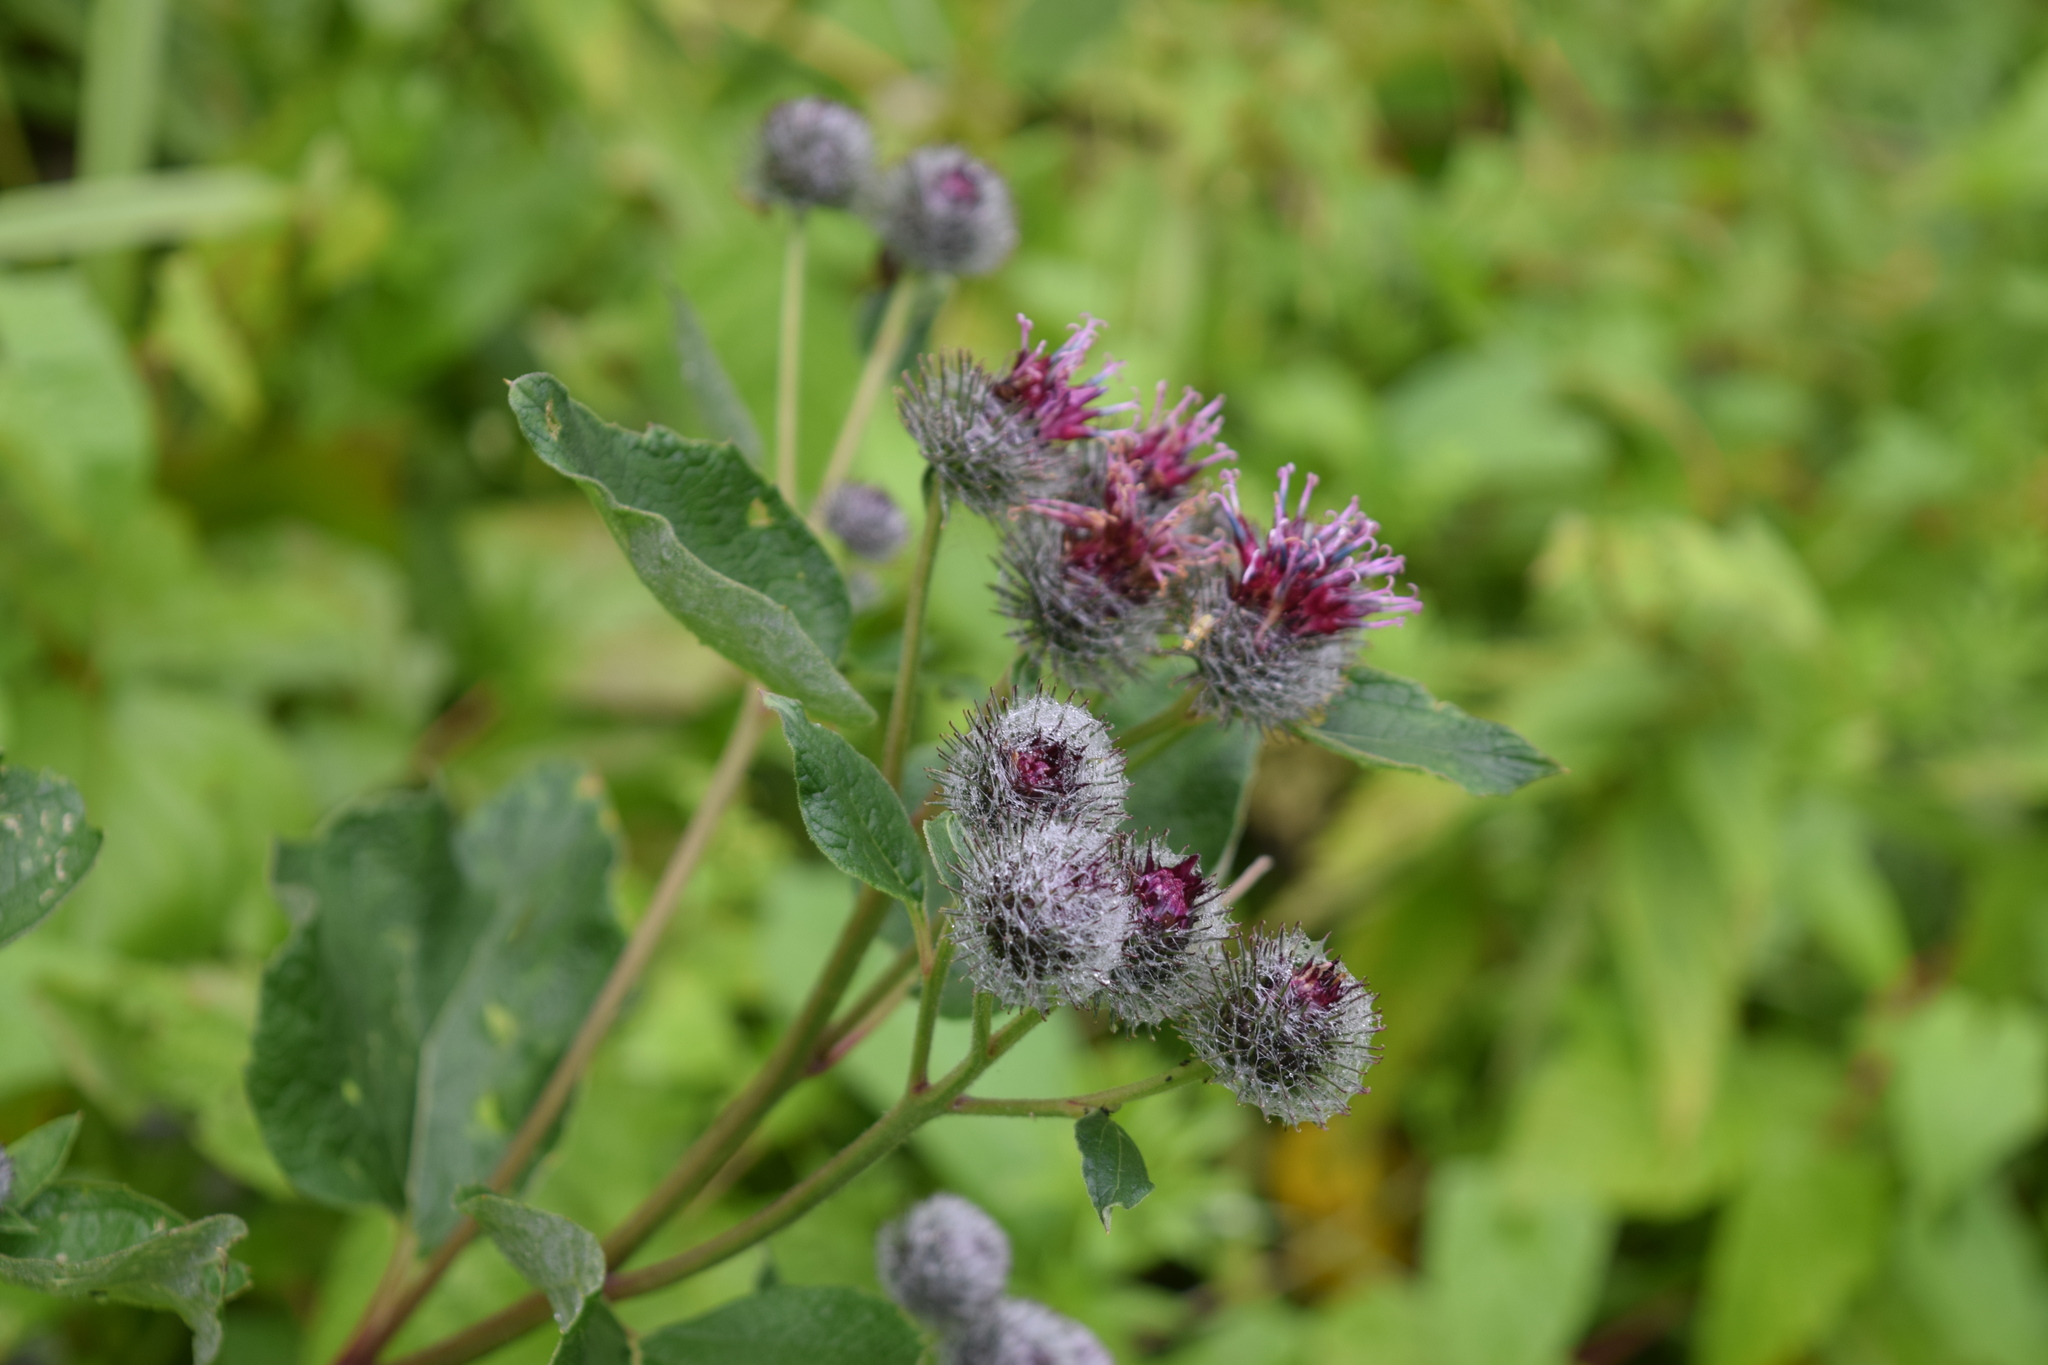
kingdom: Plantae
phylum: Tracheophyta
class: Magnoliopsida
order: Asterales
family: Asteraceae
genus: Arctium
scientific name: Arctium tomentosum
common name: Woolly burdock
